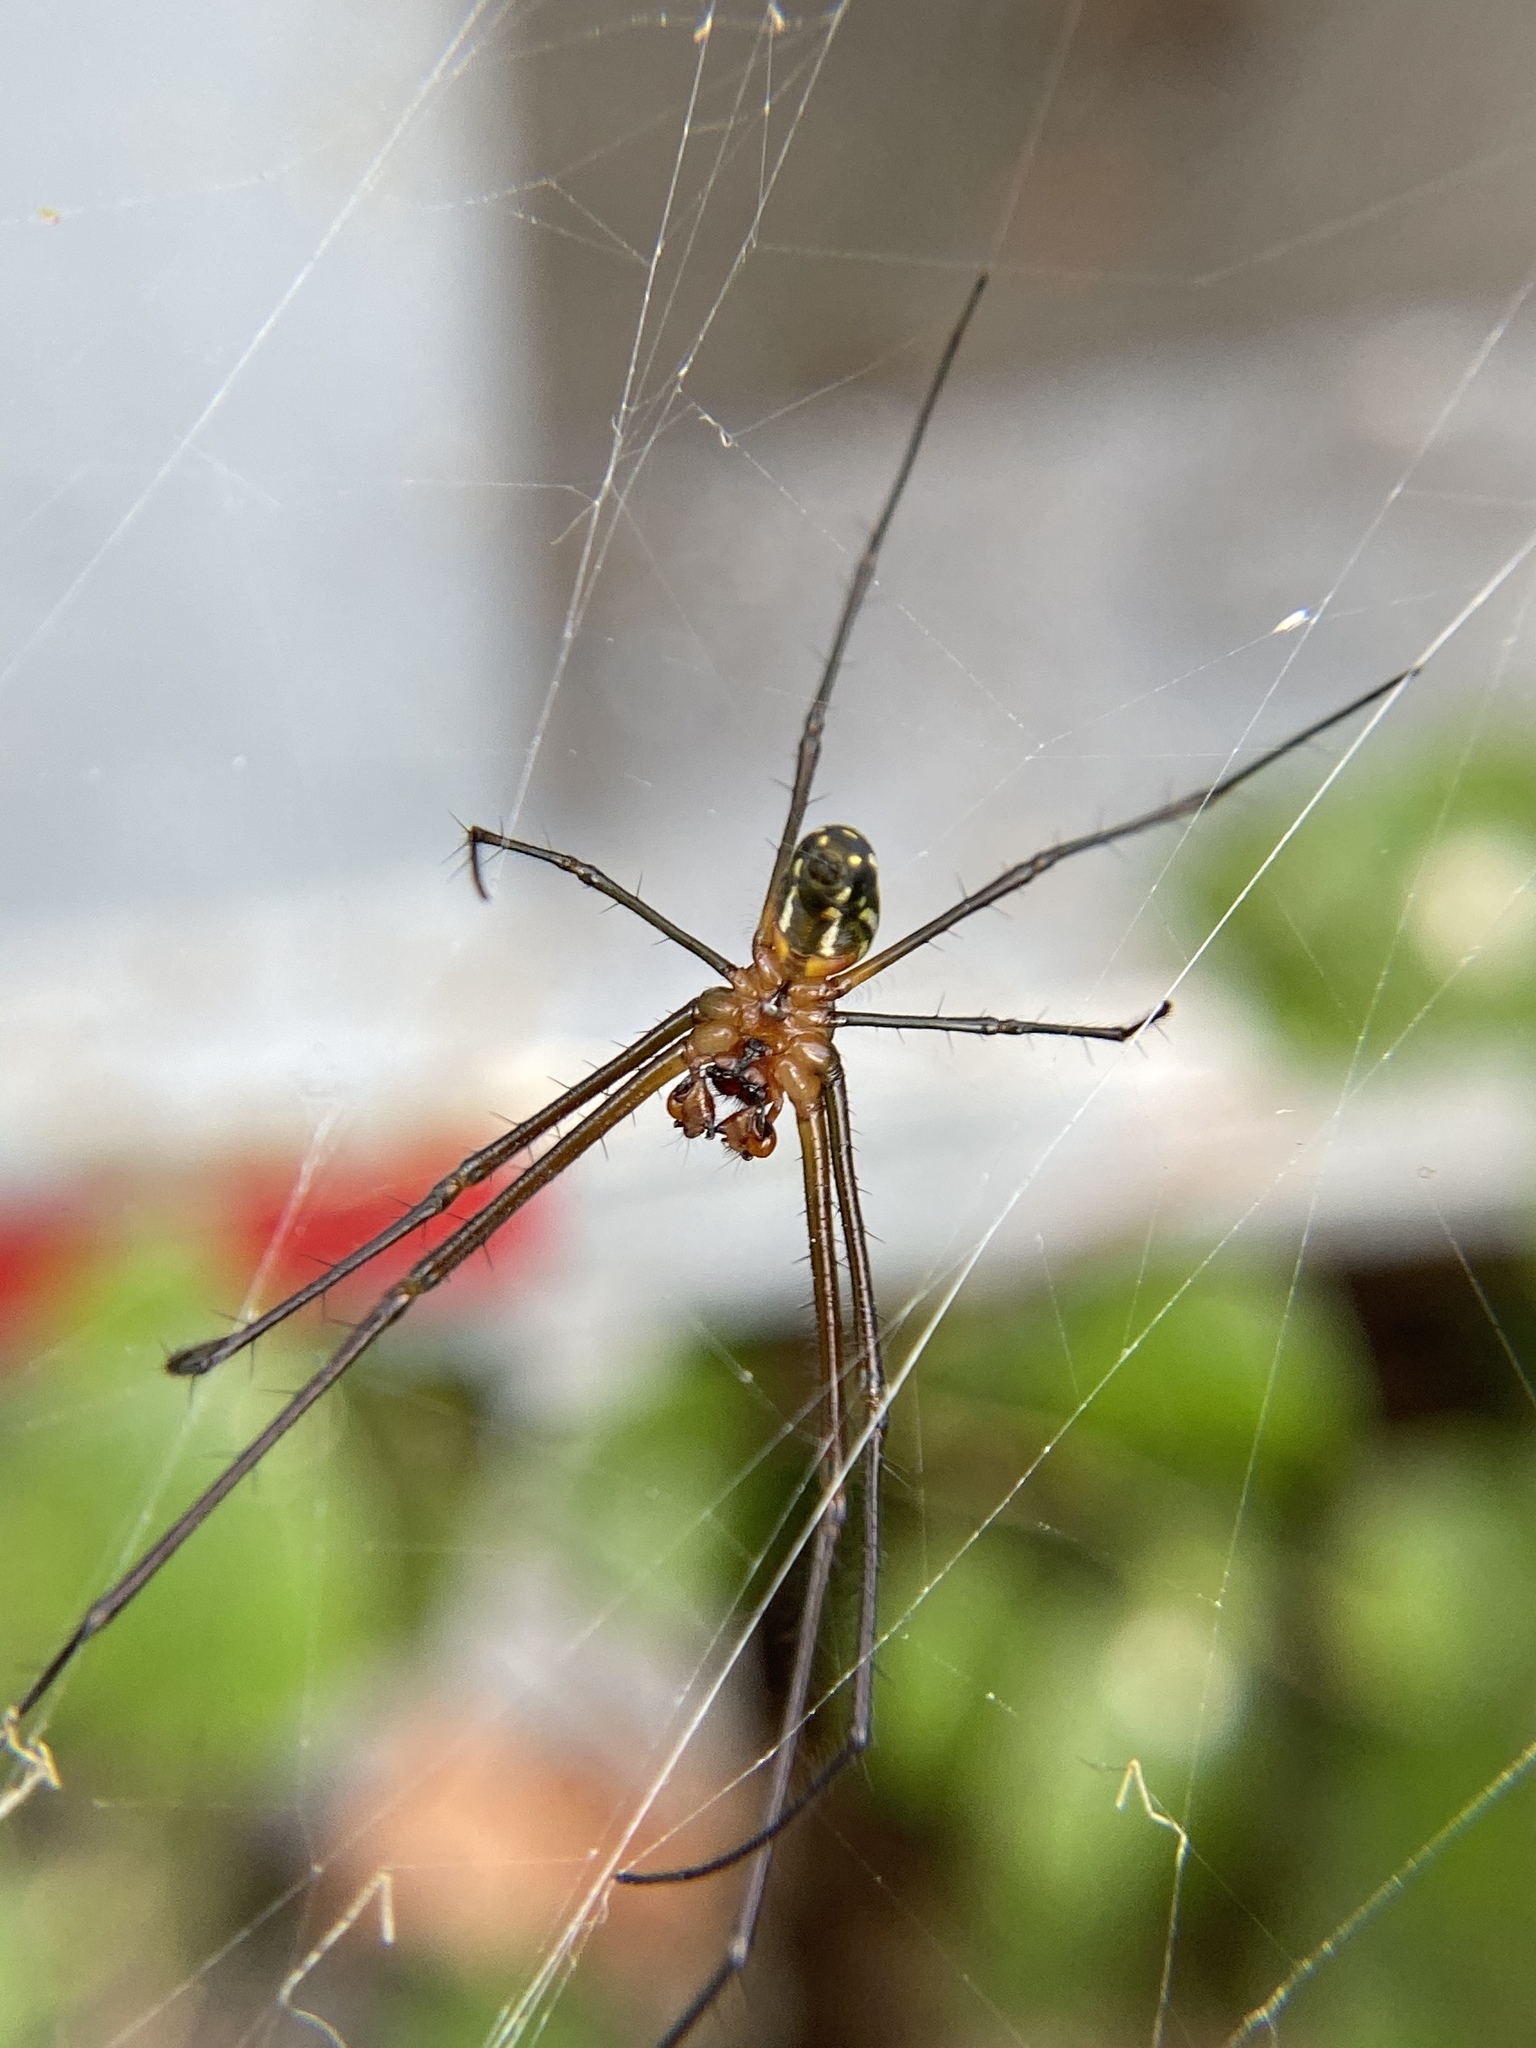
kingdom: Animalia
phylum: Arthropoda
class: Arachnida
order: Araneae
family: Tetragnathidae
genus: Leucauge
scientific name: Leucauge argyra
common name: Longjawed orb weavers
